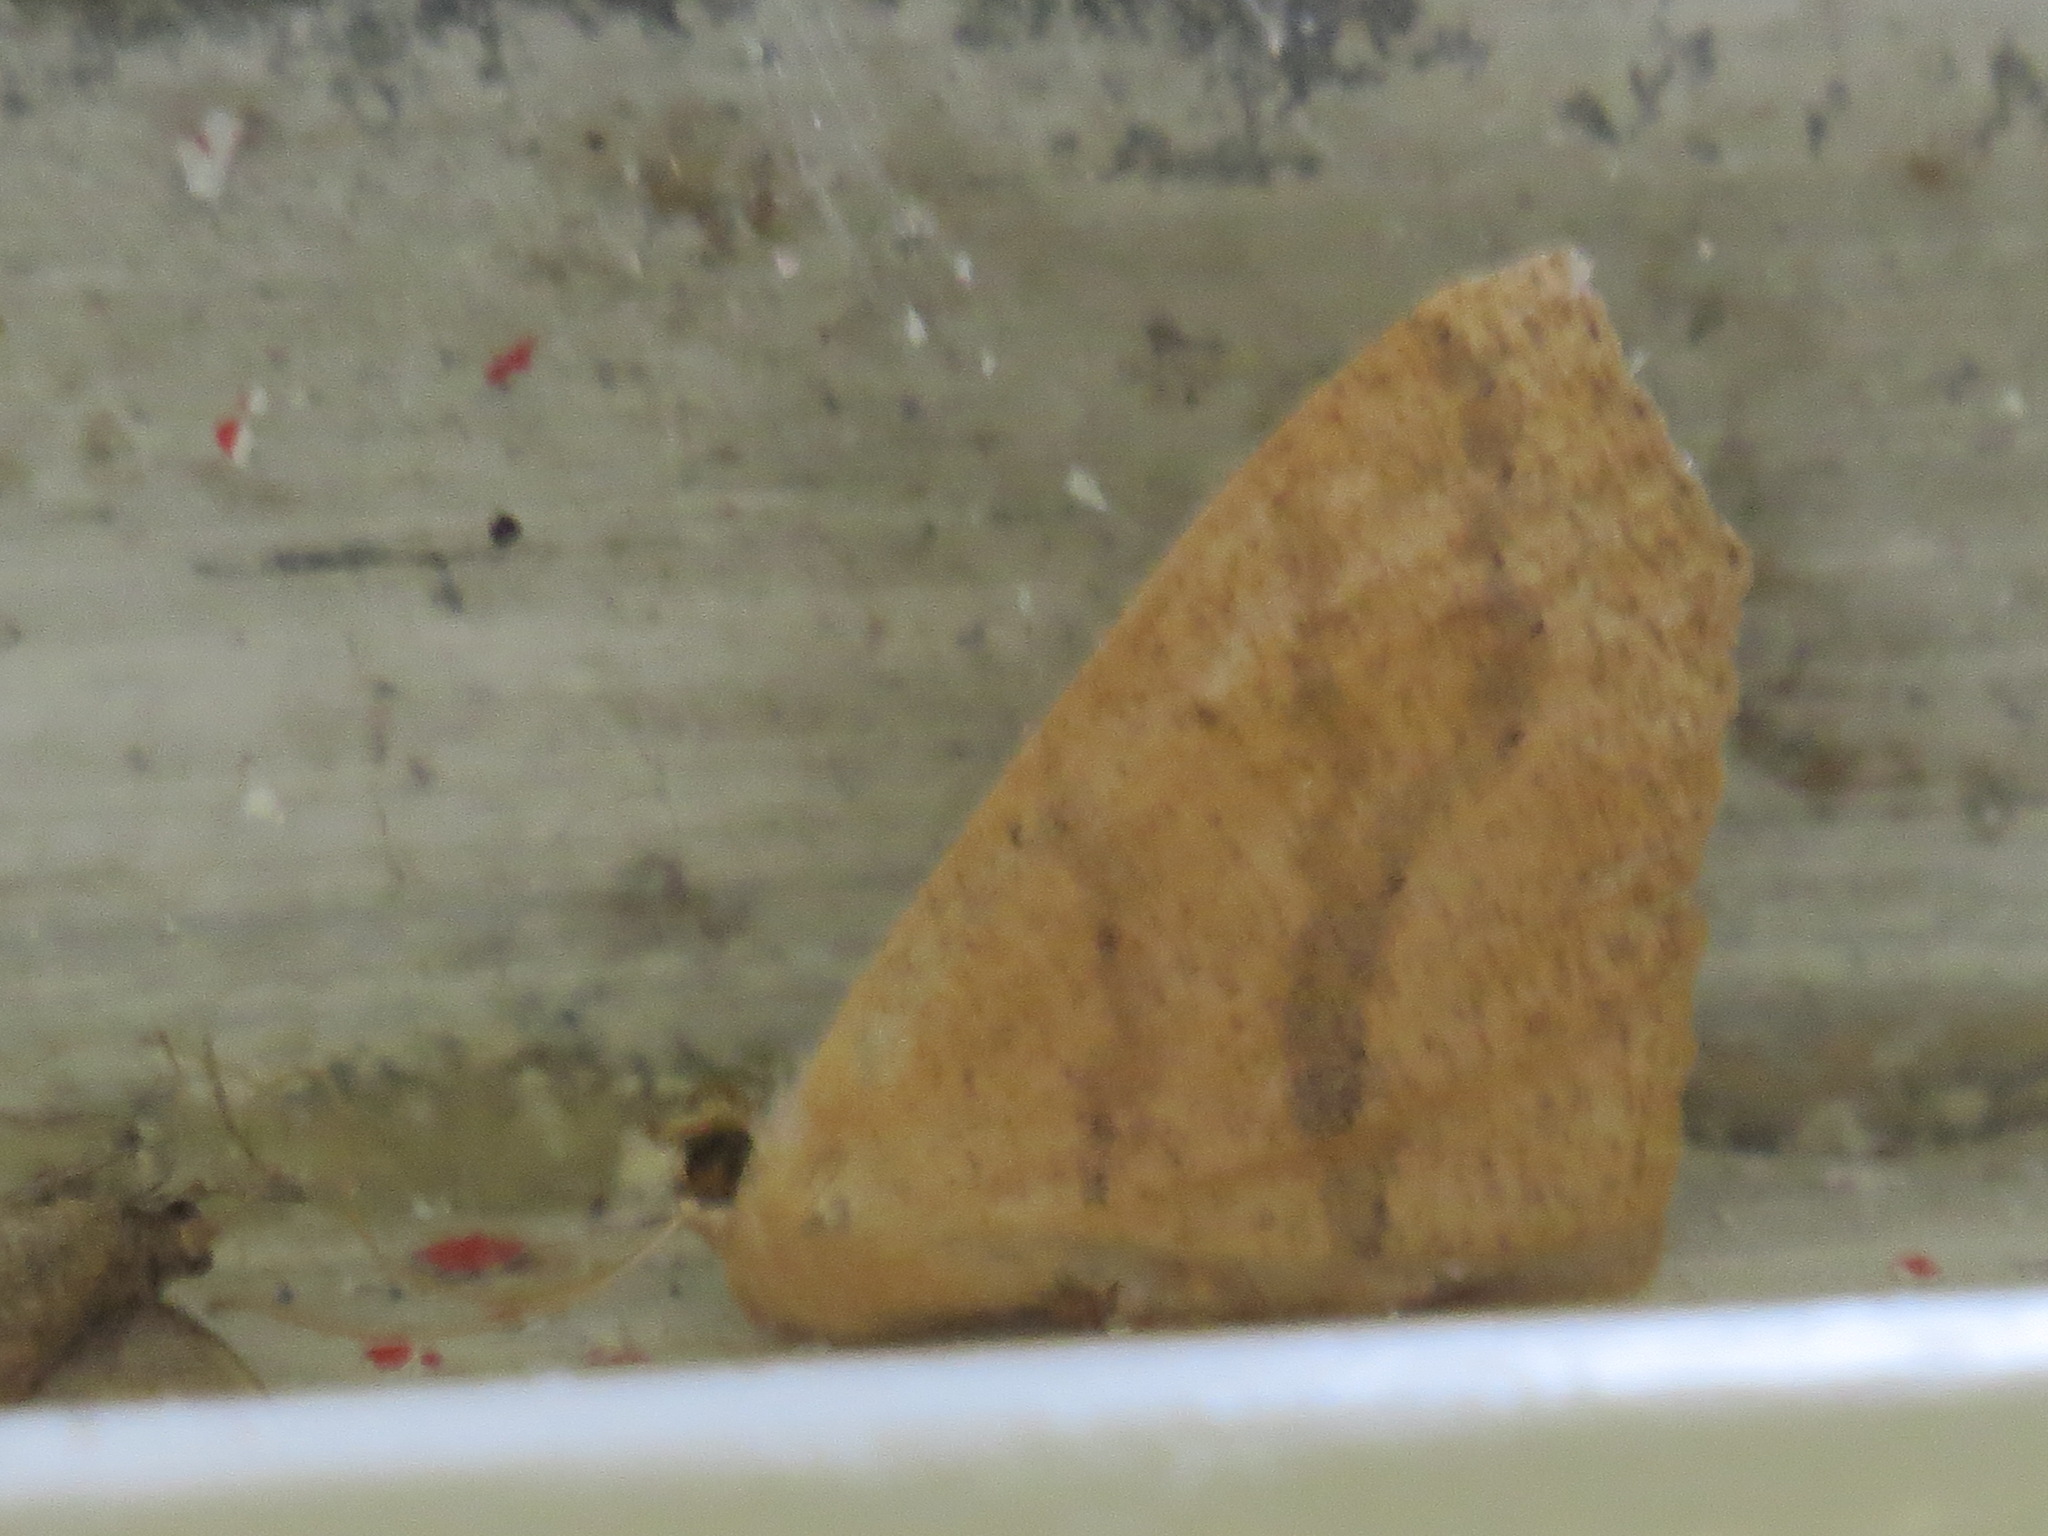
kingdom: Animalia
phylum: Arthropoda
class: Insecta
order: Lepidoptera
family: Geometridae
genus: Sabulodes
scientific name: Sabulodes aegrotata
